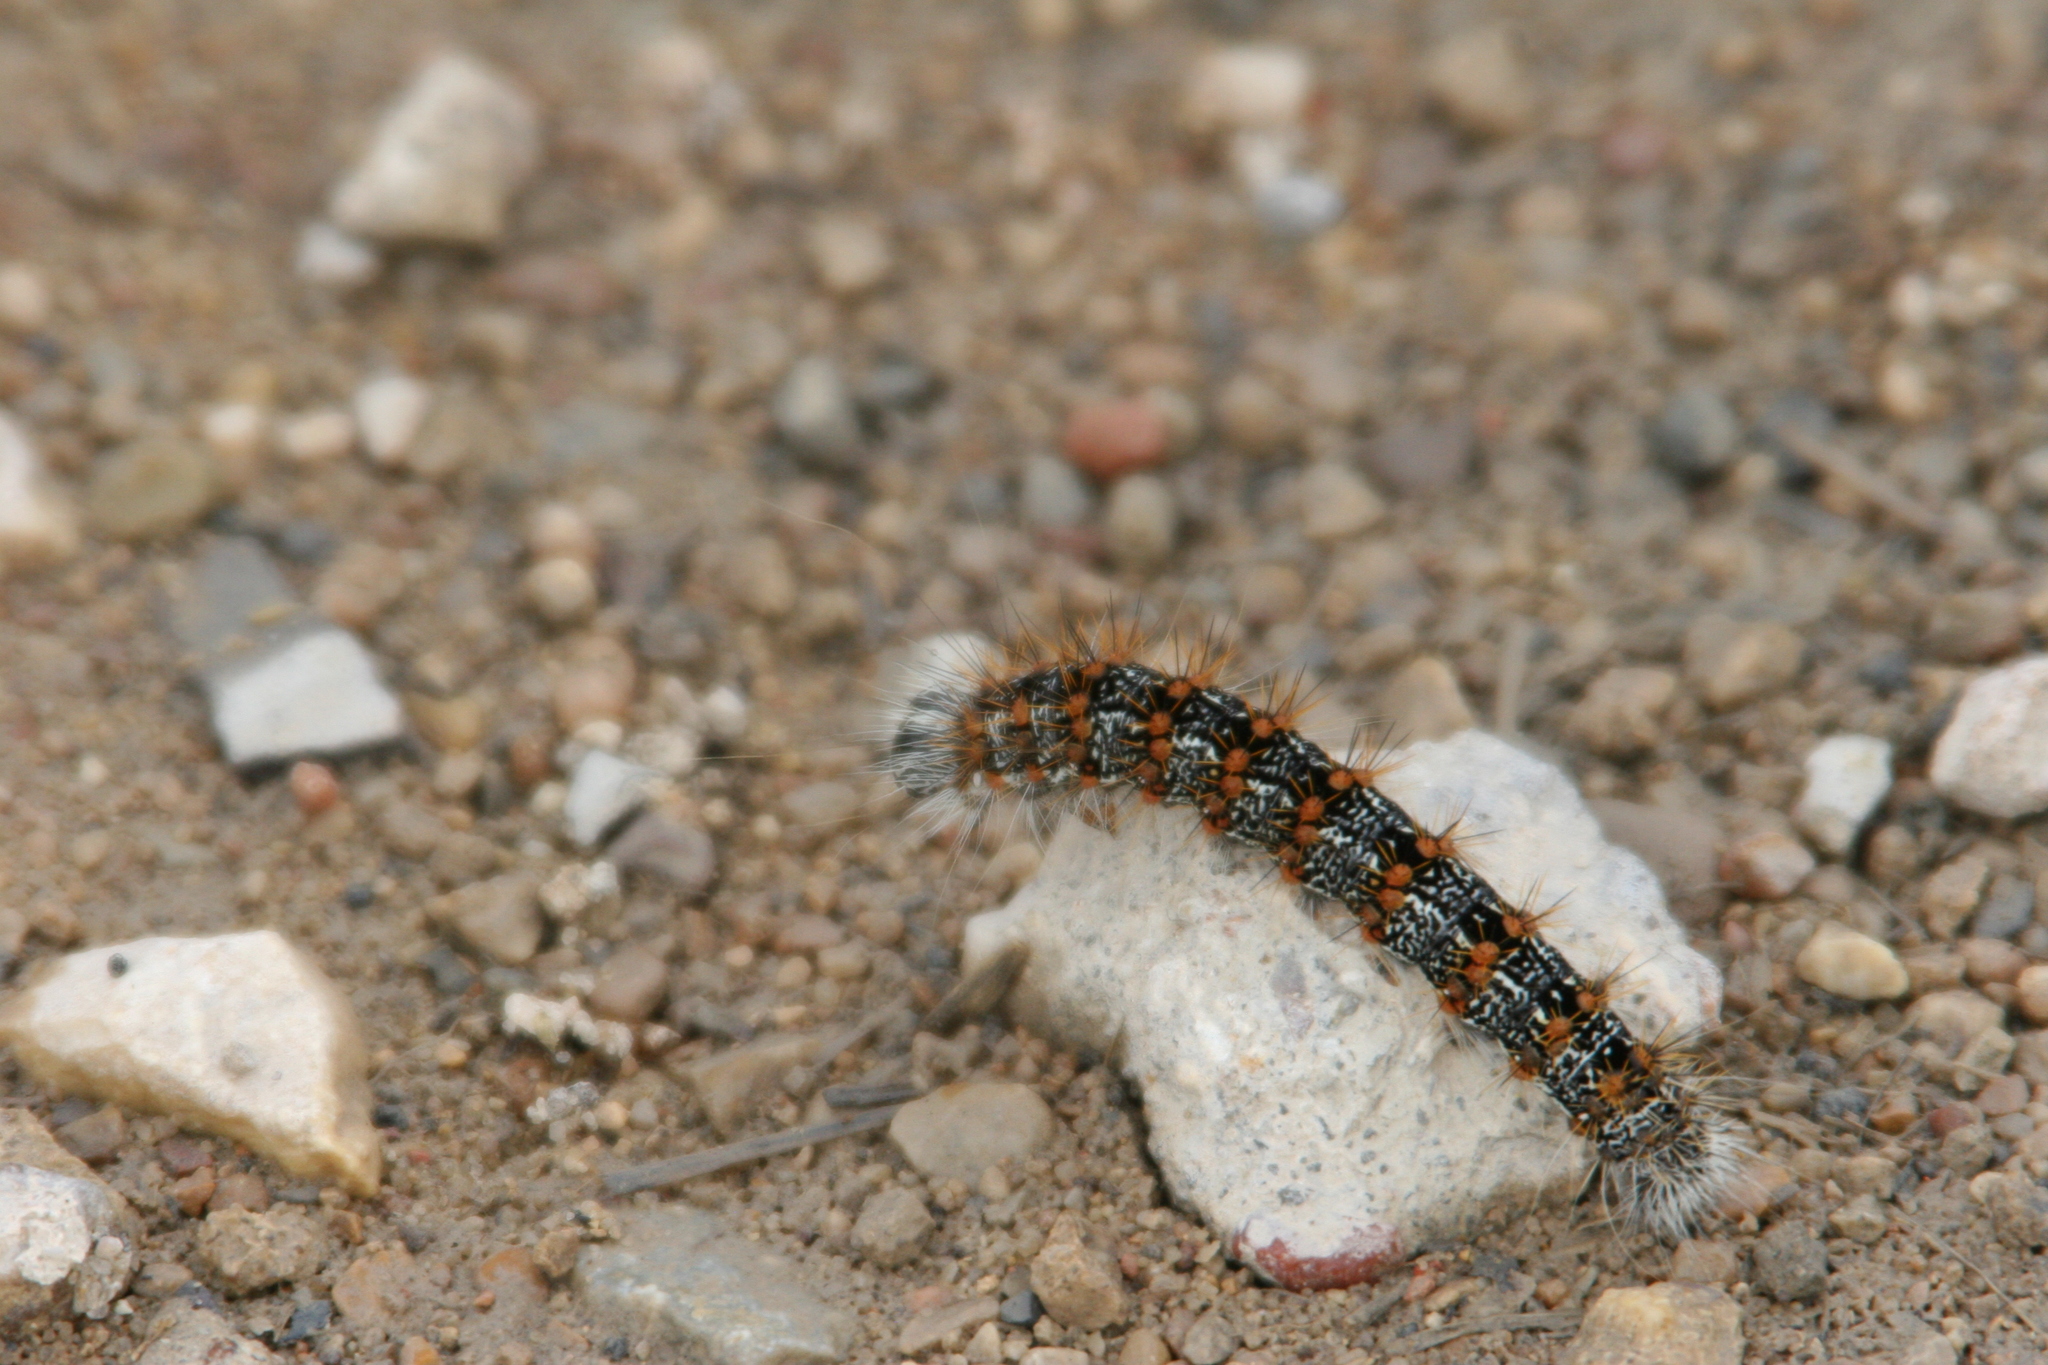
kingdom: Animalia
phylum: Arthropoda
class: Insecta
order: Lepidoptera
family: Noctuidae
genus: Acronicta
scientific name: Acronicta insularis
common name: Henry's marsh moth
